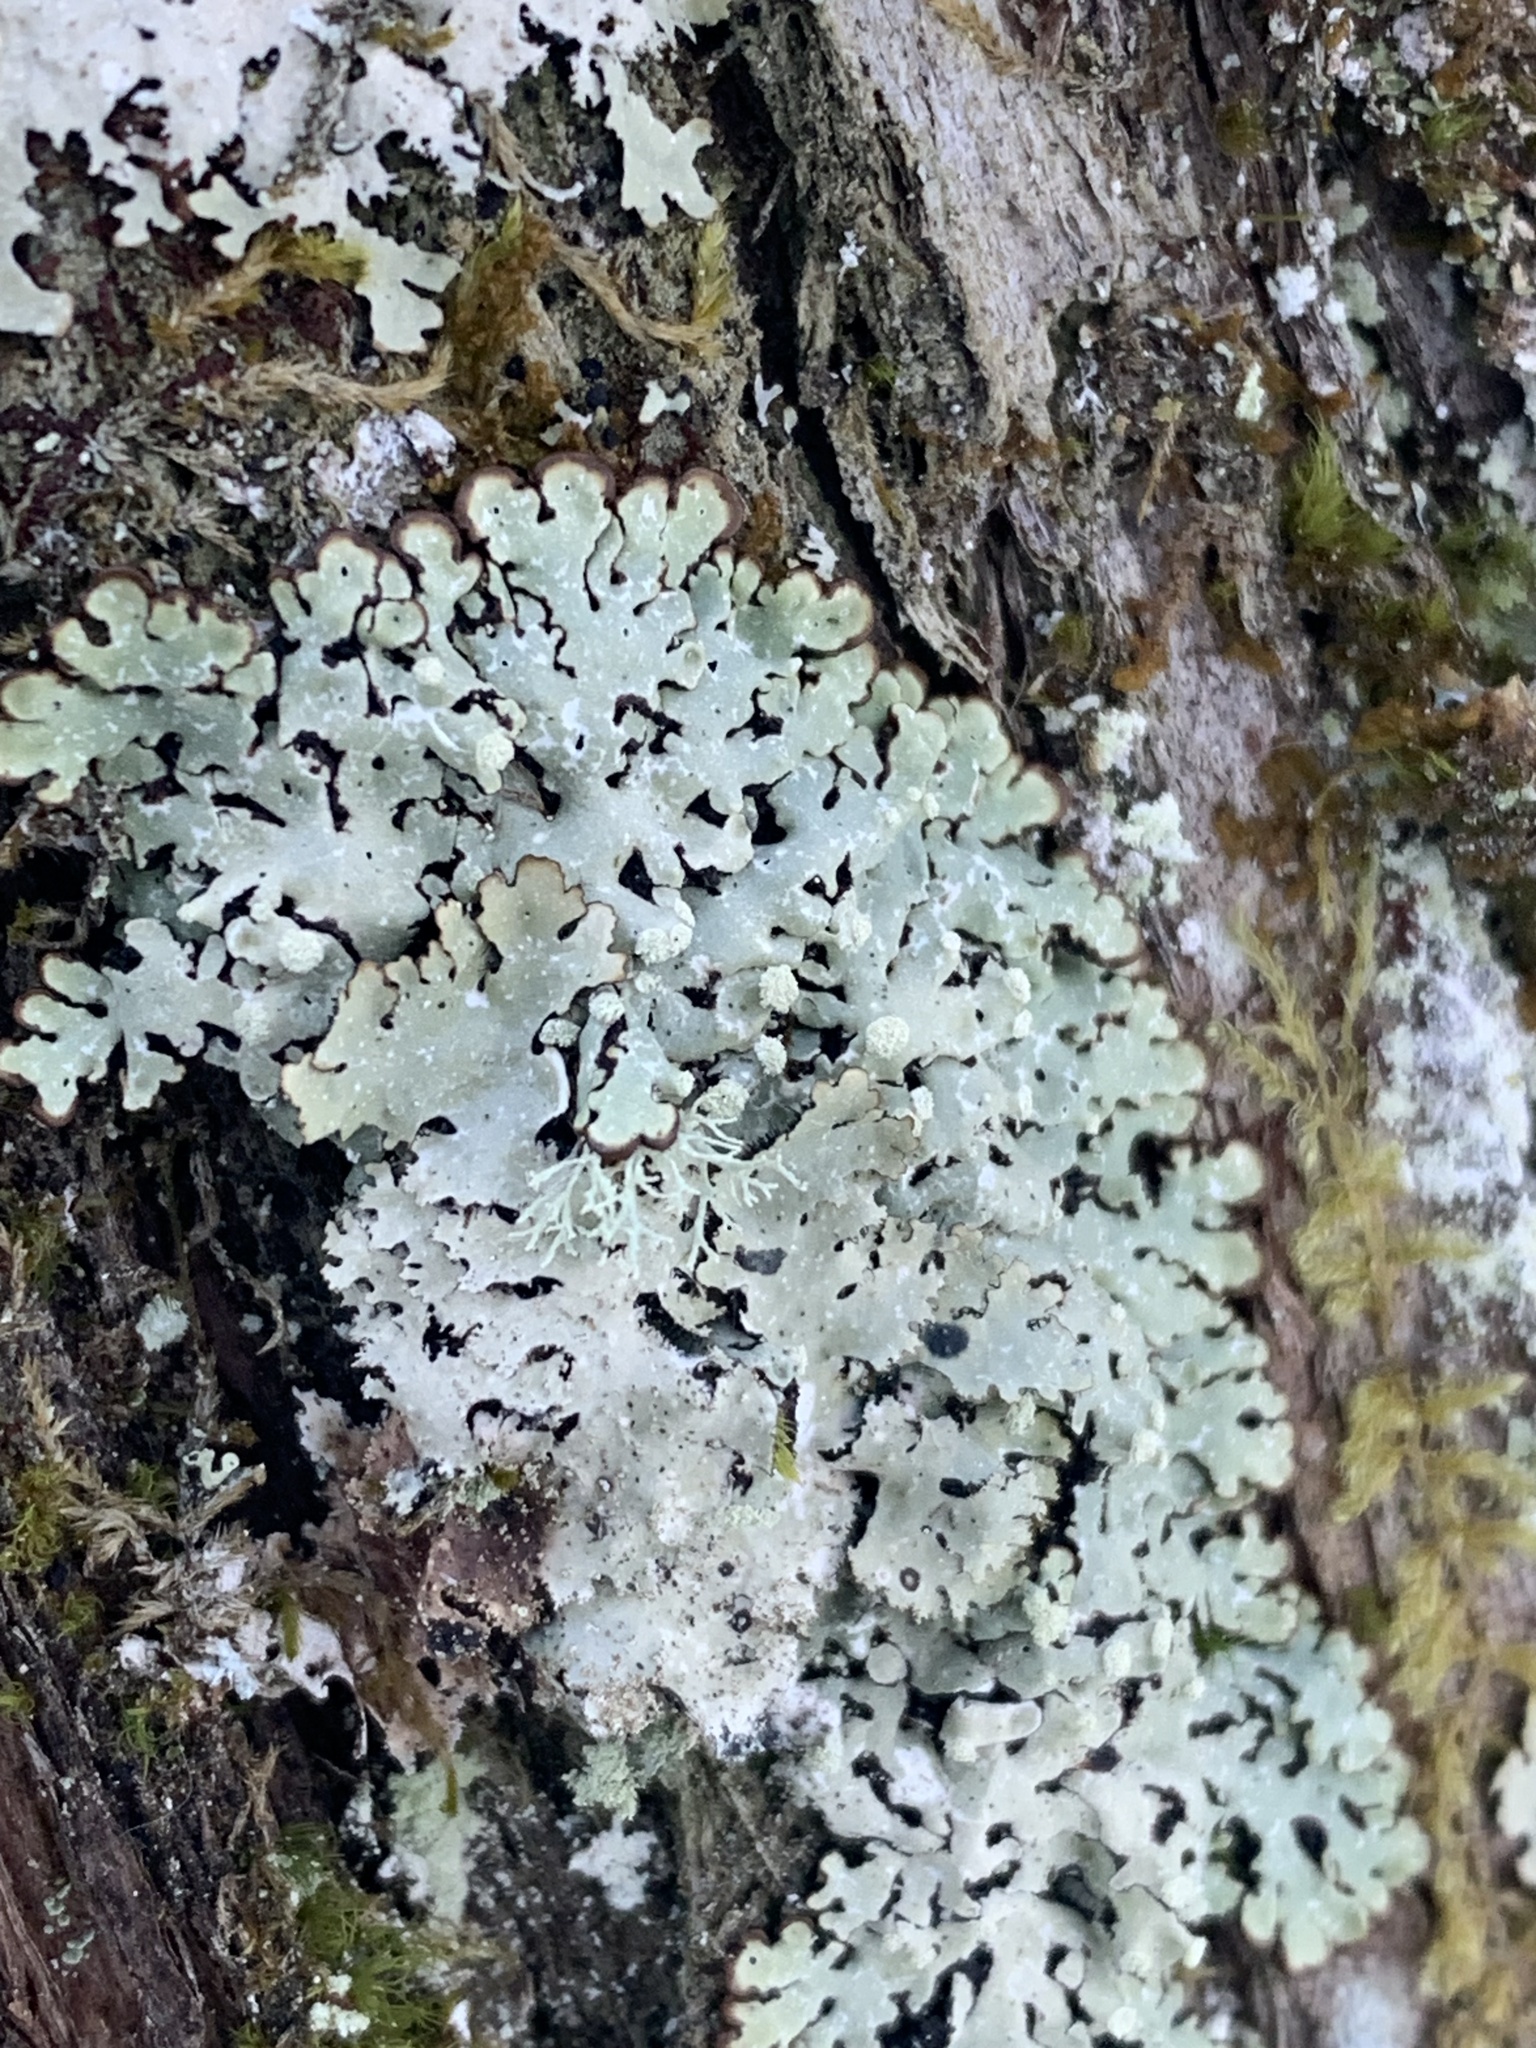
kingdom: Fungi
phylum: Ascomycota
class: Lecanoromycetes
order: Lecanorales
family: Parmeliaceae
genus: Menegazzia
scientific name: Menegazzia terebrata
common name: Magic treeflute lichen
